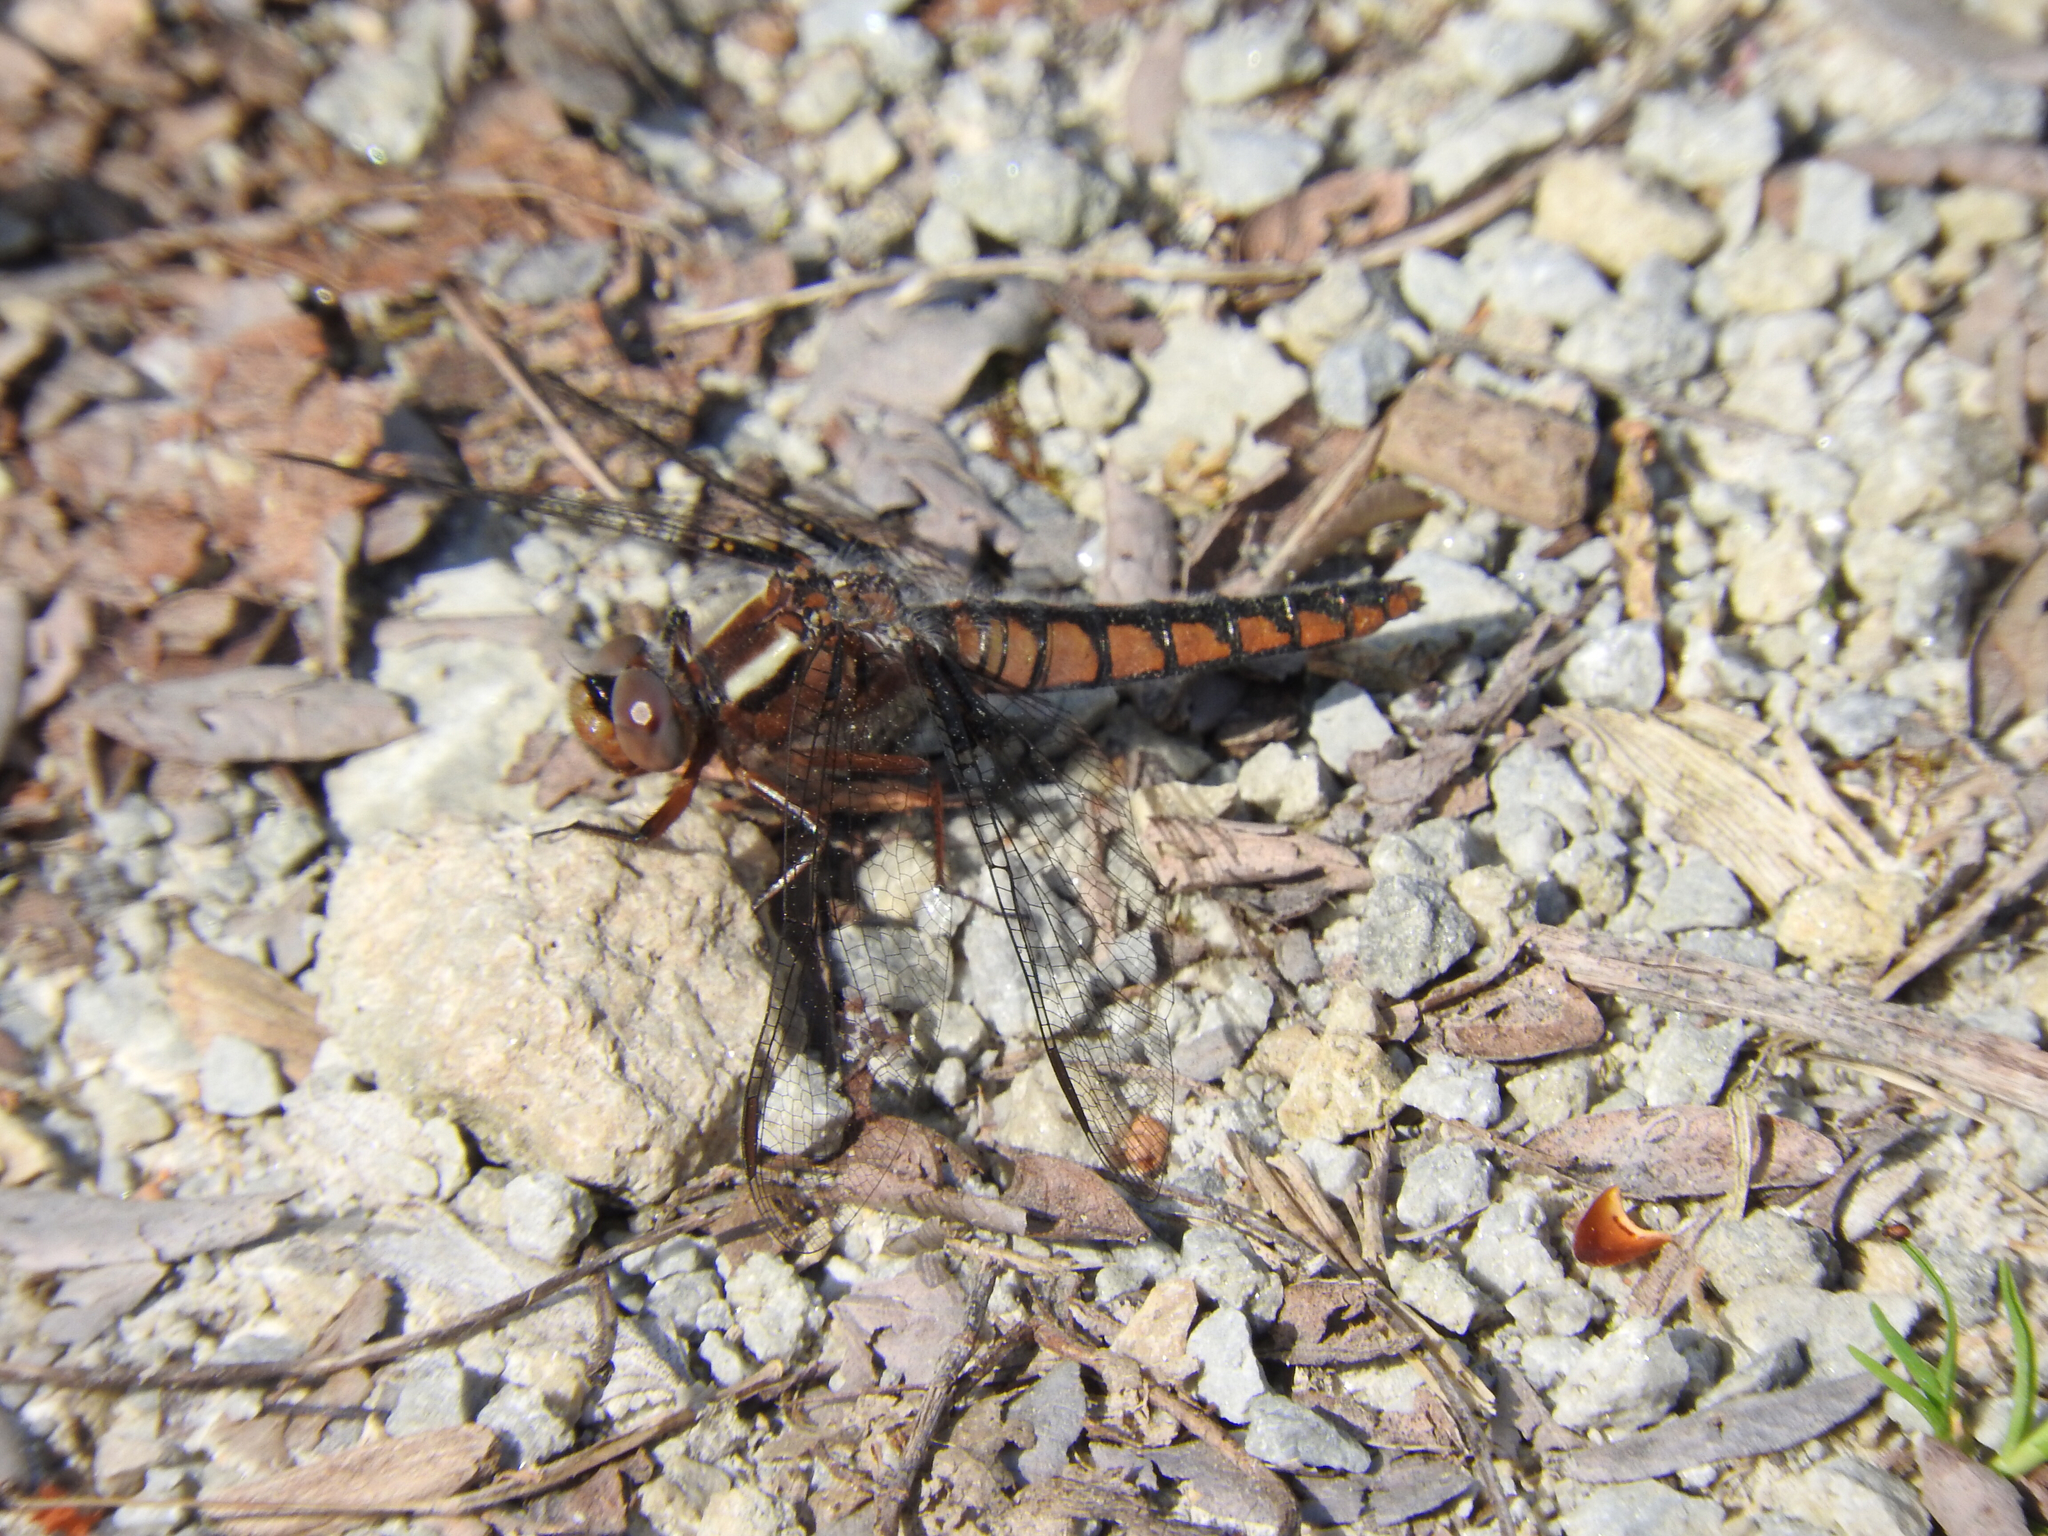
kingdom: Animalia
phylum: Arthropoda
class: Insecta
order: Odonata
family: Libellulidae
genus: Ladona
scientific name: Ladona deplanata
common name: Blue corporal
